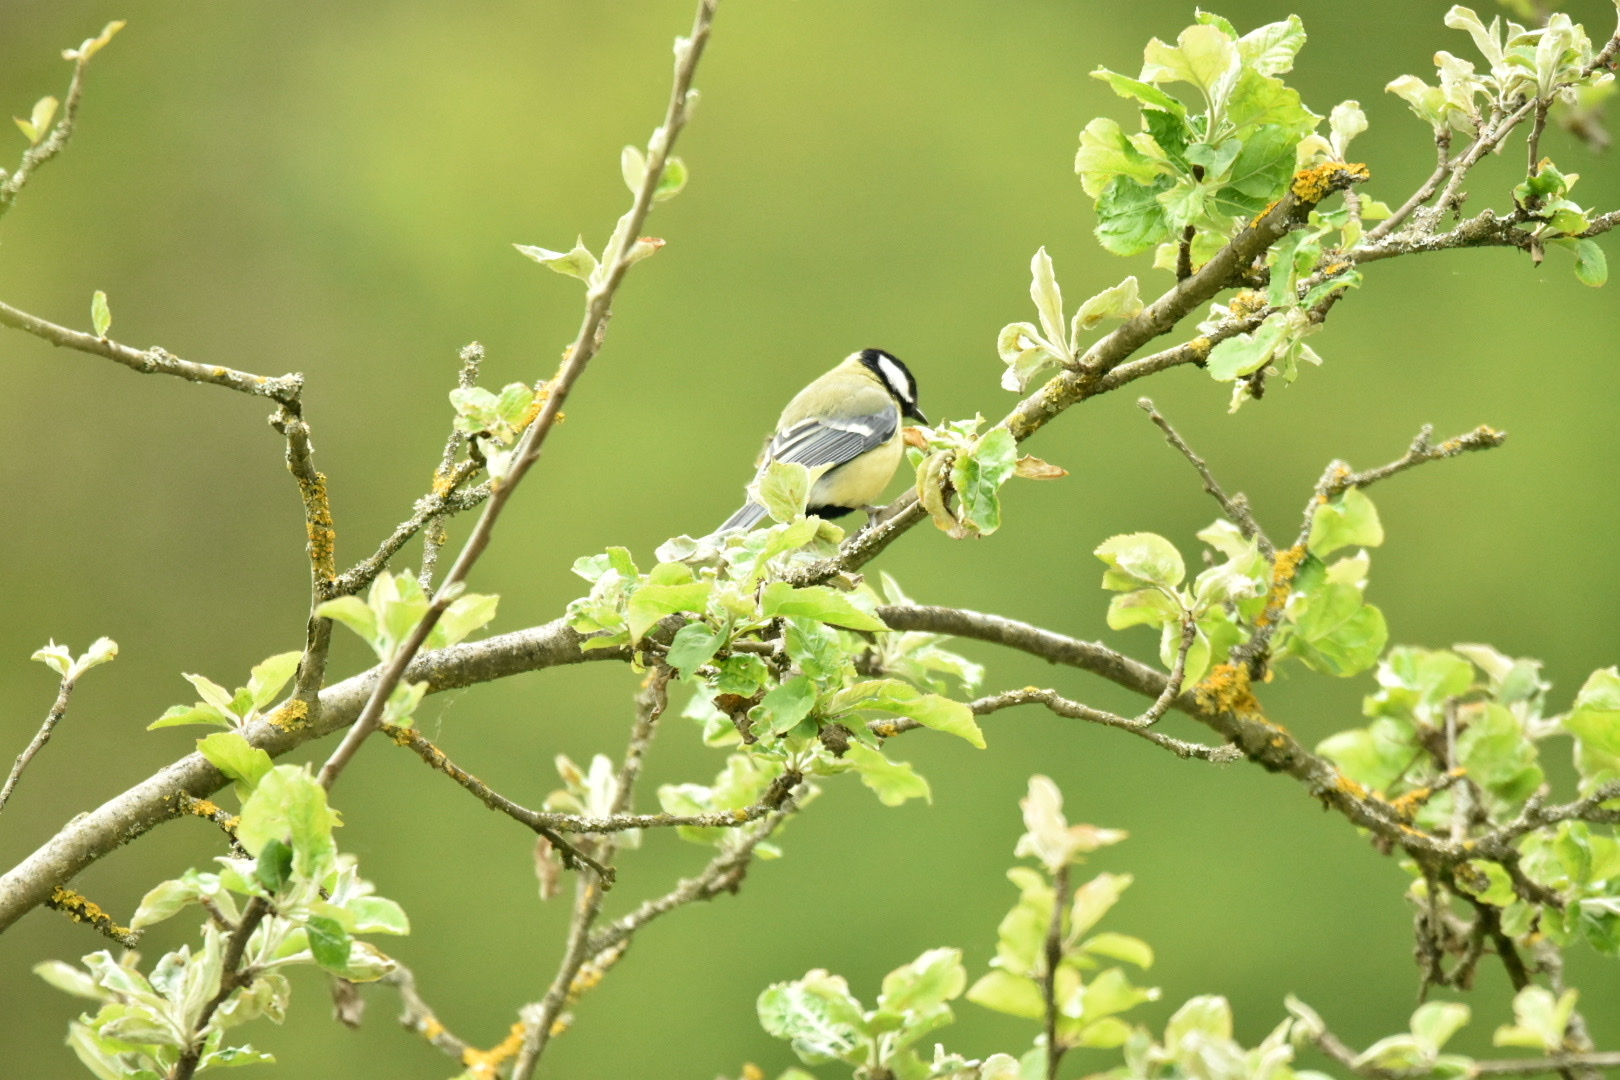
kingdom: Animalia
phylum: Chordata
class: Aves
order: Passeriformes
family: Paridae
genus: Parus
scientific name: Parus major
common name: Great tit
